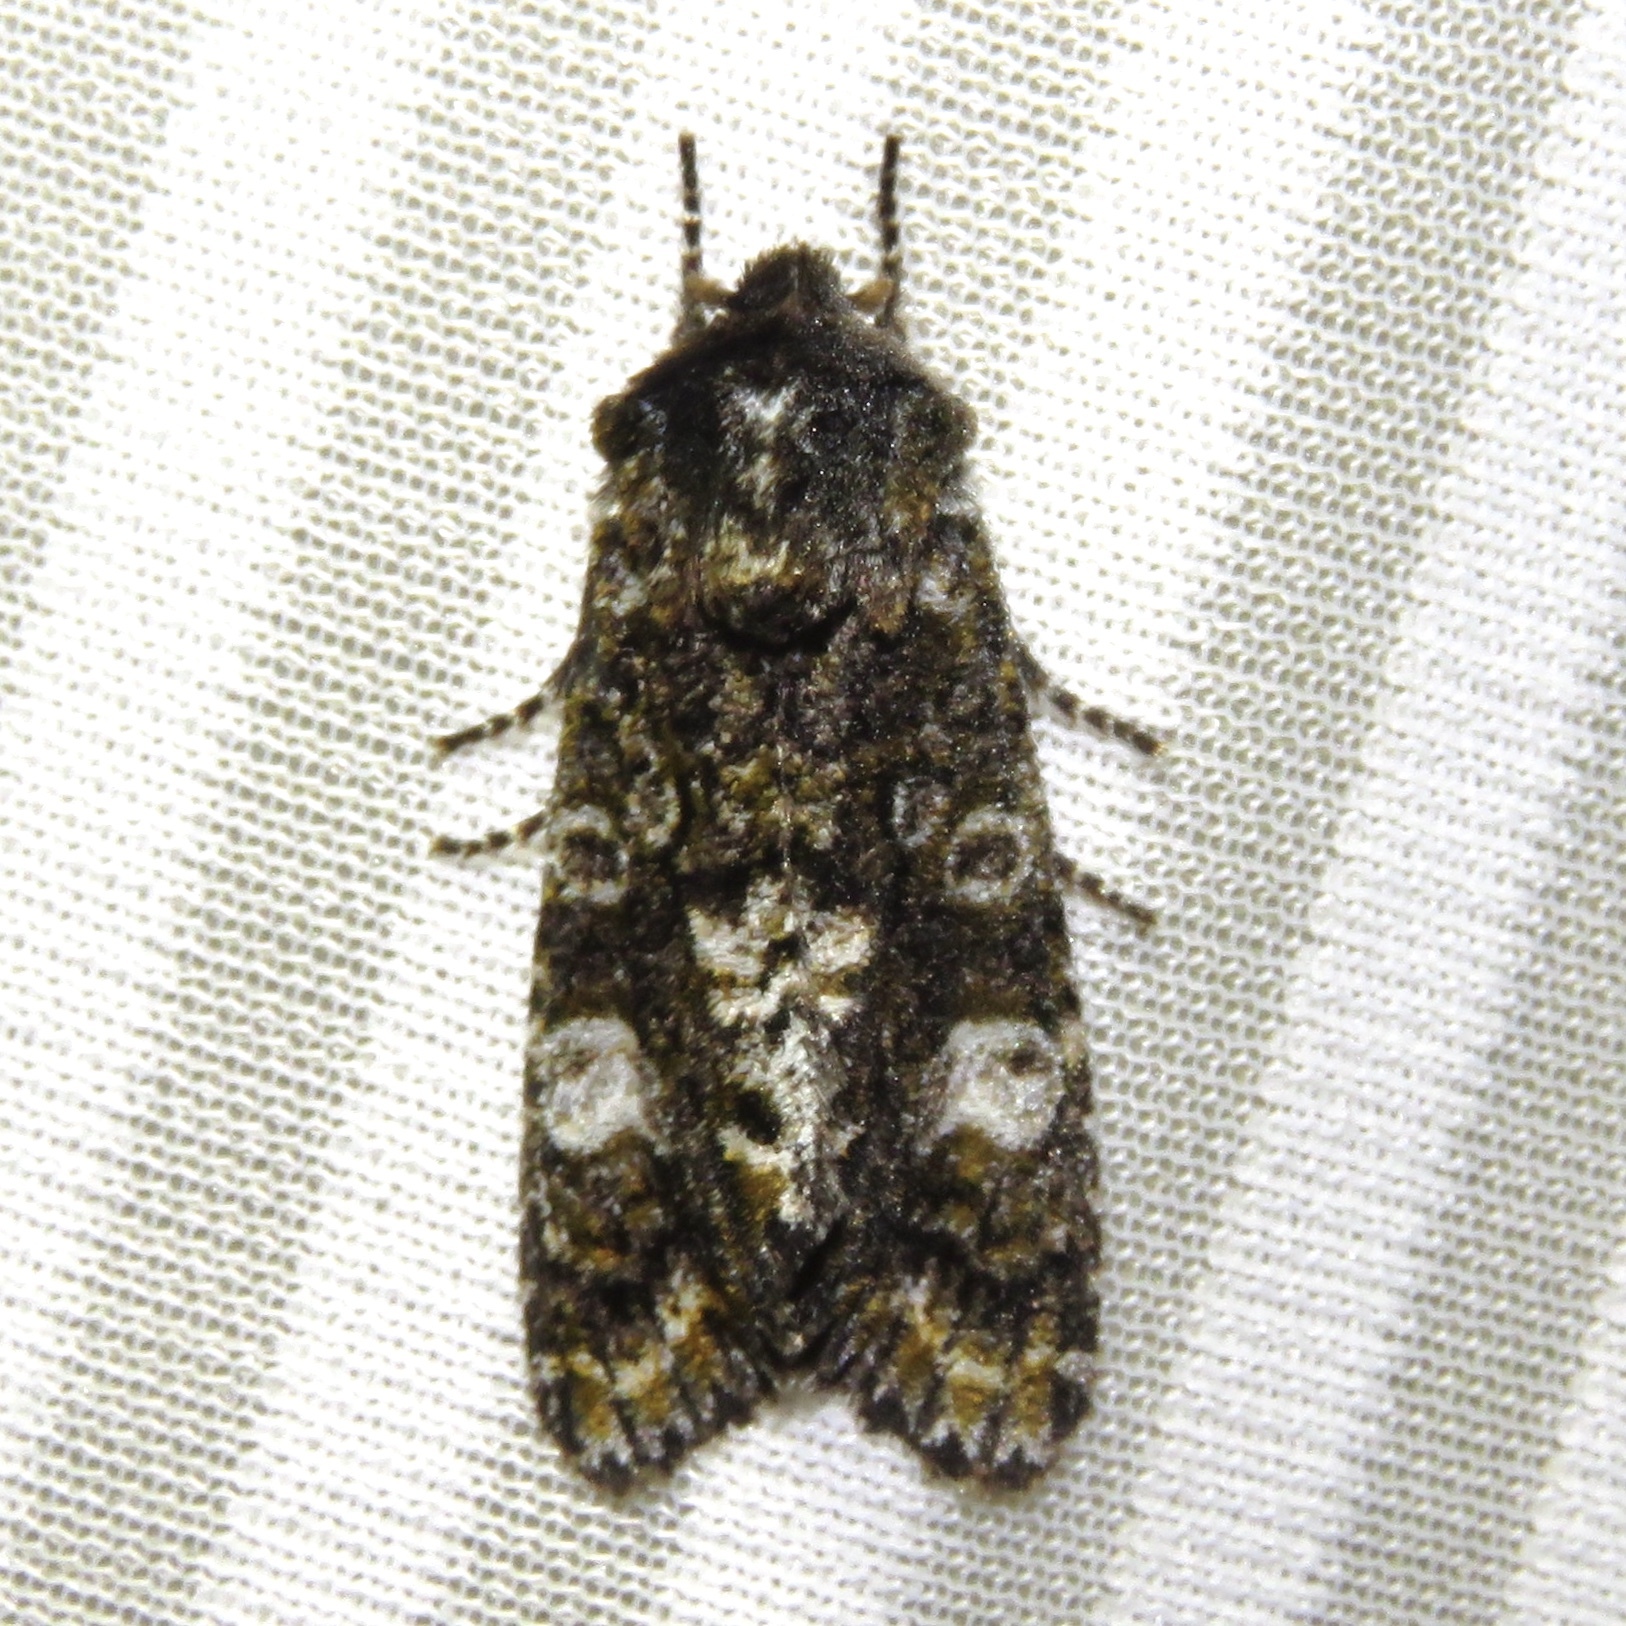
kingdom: Animalia
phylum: Arthropoda
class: Insecta
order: Lepidoptera
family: Noctuidae
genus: Psaphida
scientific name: Psaphida grotei
